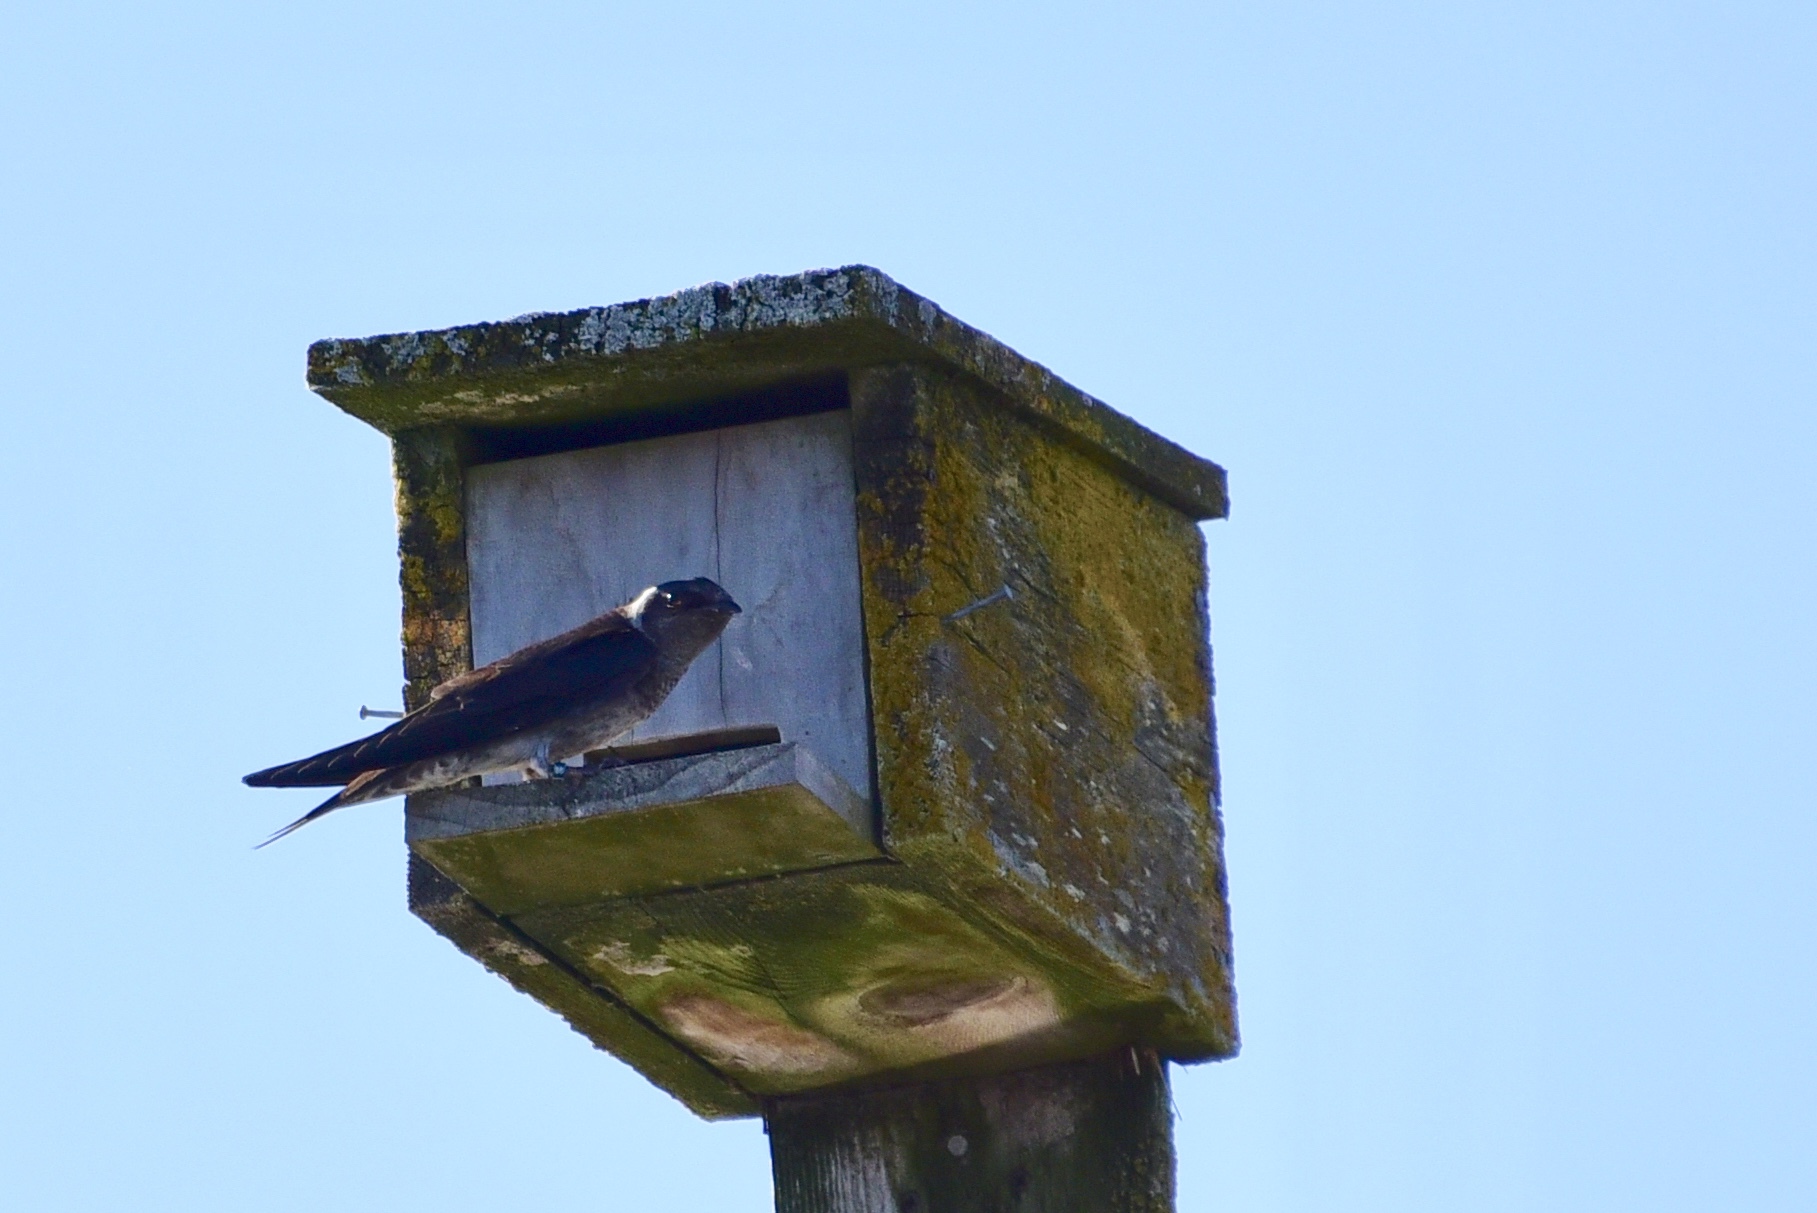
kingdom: Animalia
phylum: Chordata
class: Aves
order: Passeriformes
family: Hirundinidae
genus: Progne
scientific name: Progne subis
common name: Purple martin
